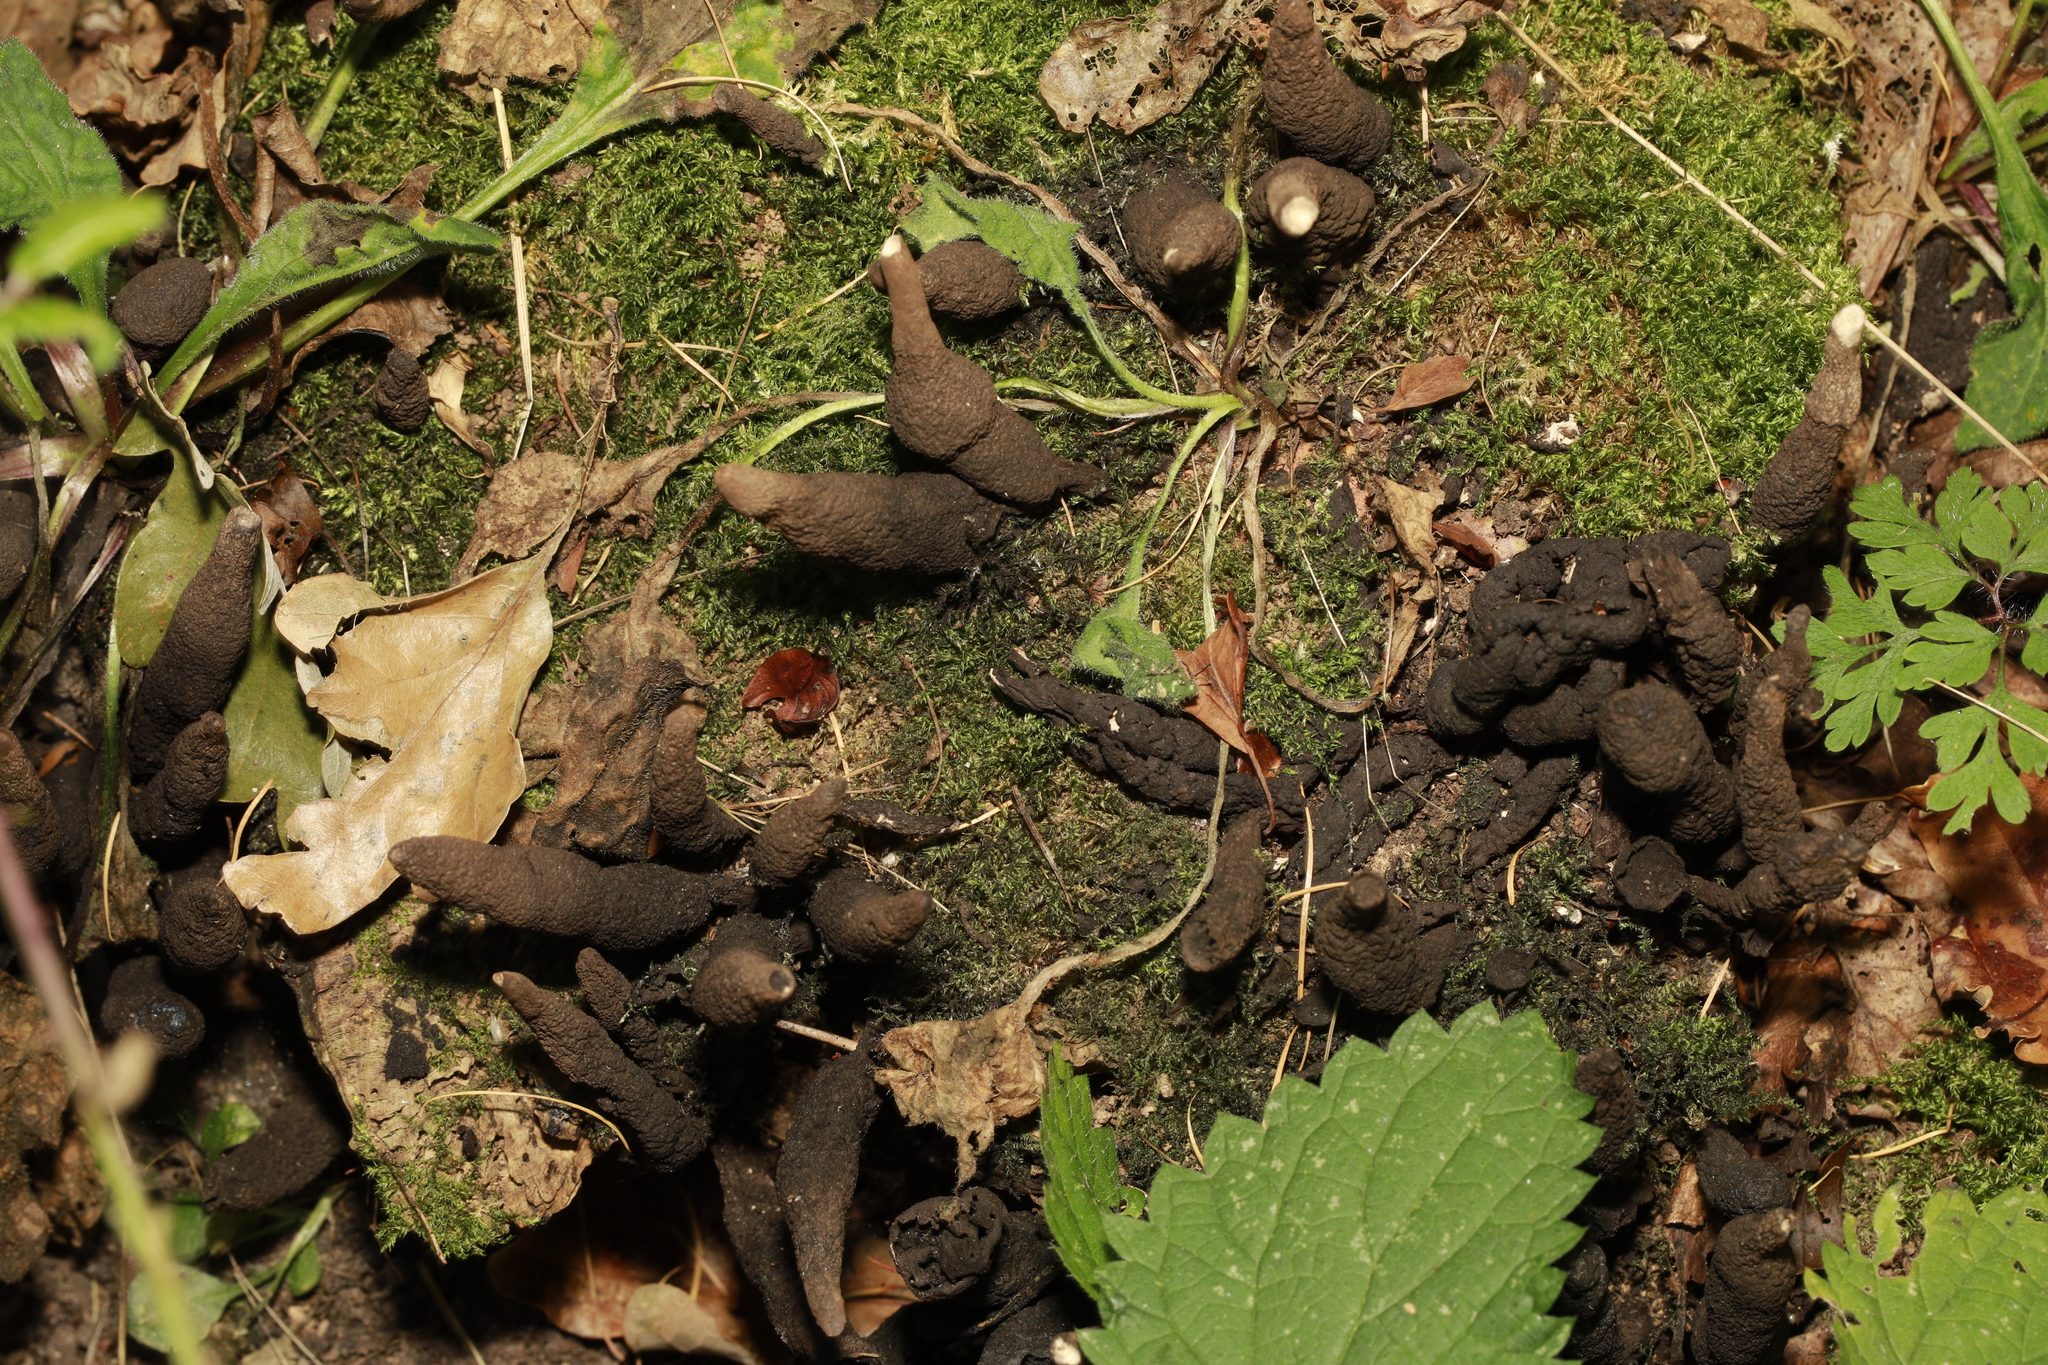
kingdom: Fungi
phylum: Ascomycota
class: Sordariomycetes
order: Xylariales
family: Xylariaceae
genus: Xylaria
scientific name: Xylaria polymorpha
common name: Dead man's fingers
